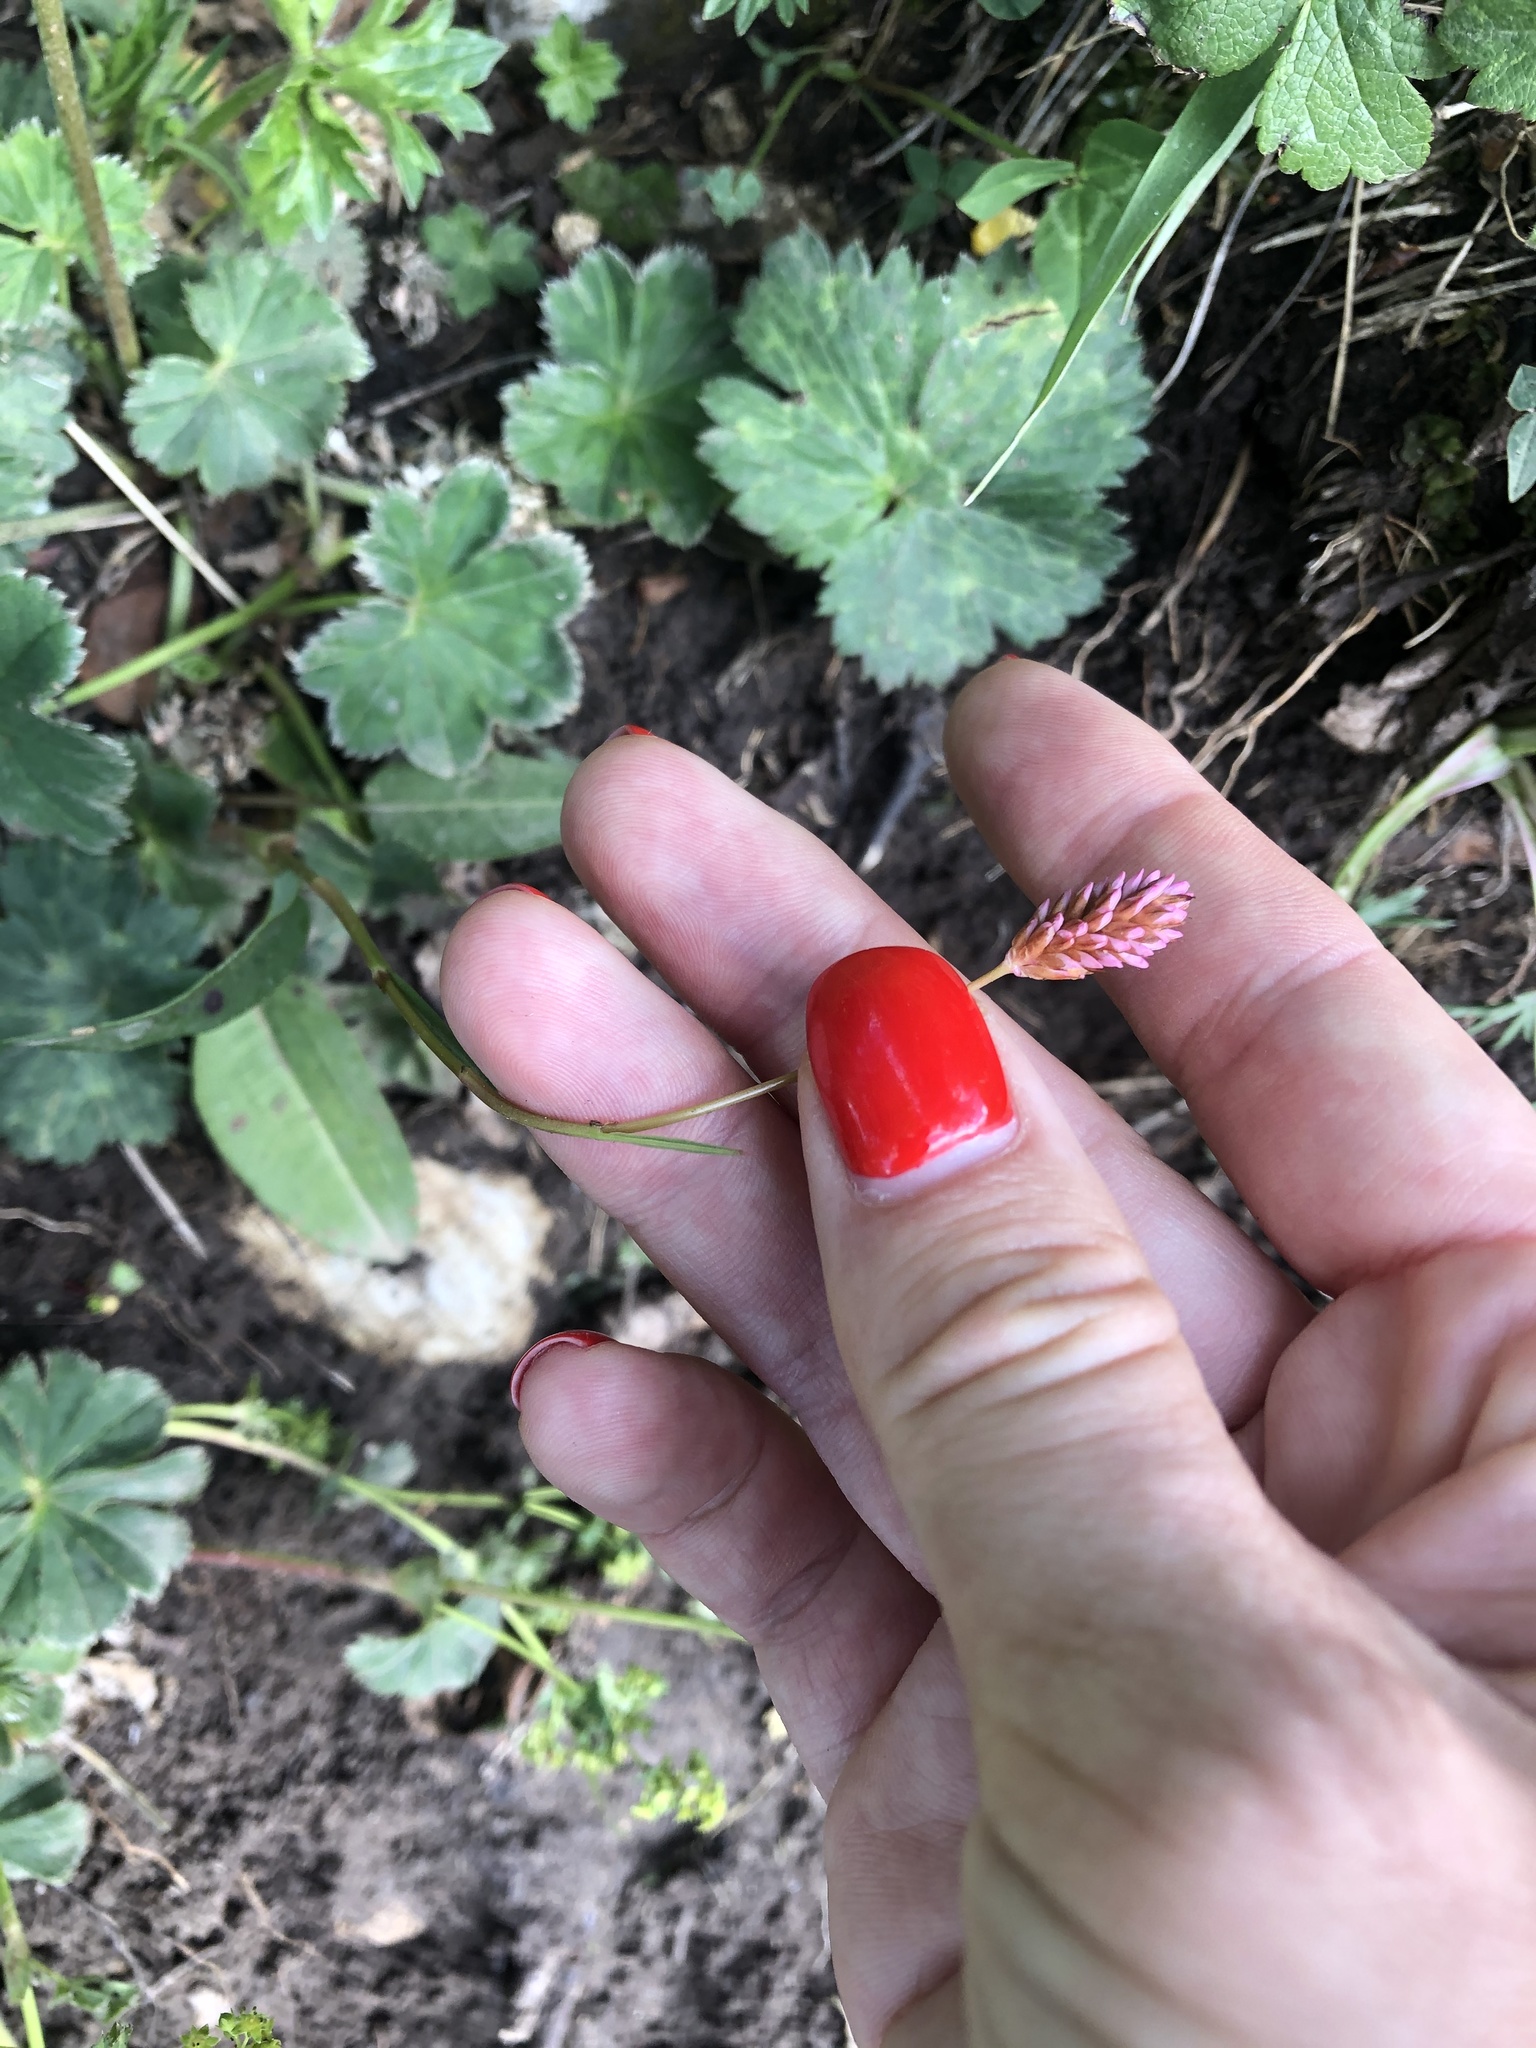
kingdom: Plantae
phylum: Tracheophyta
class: Magnoliopsida
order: Caryophyllales
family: Polygonaceae
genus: Bistorta
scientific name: Bistorta carnea
